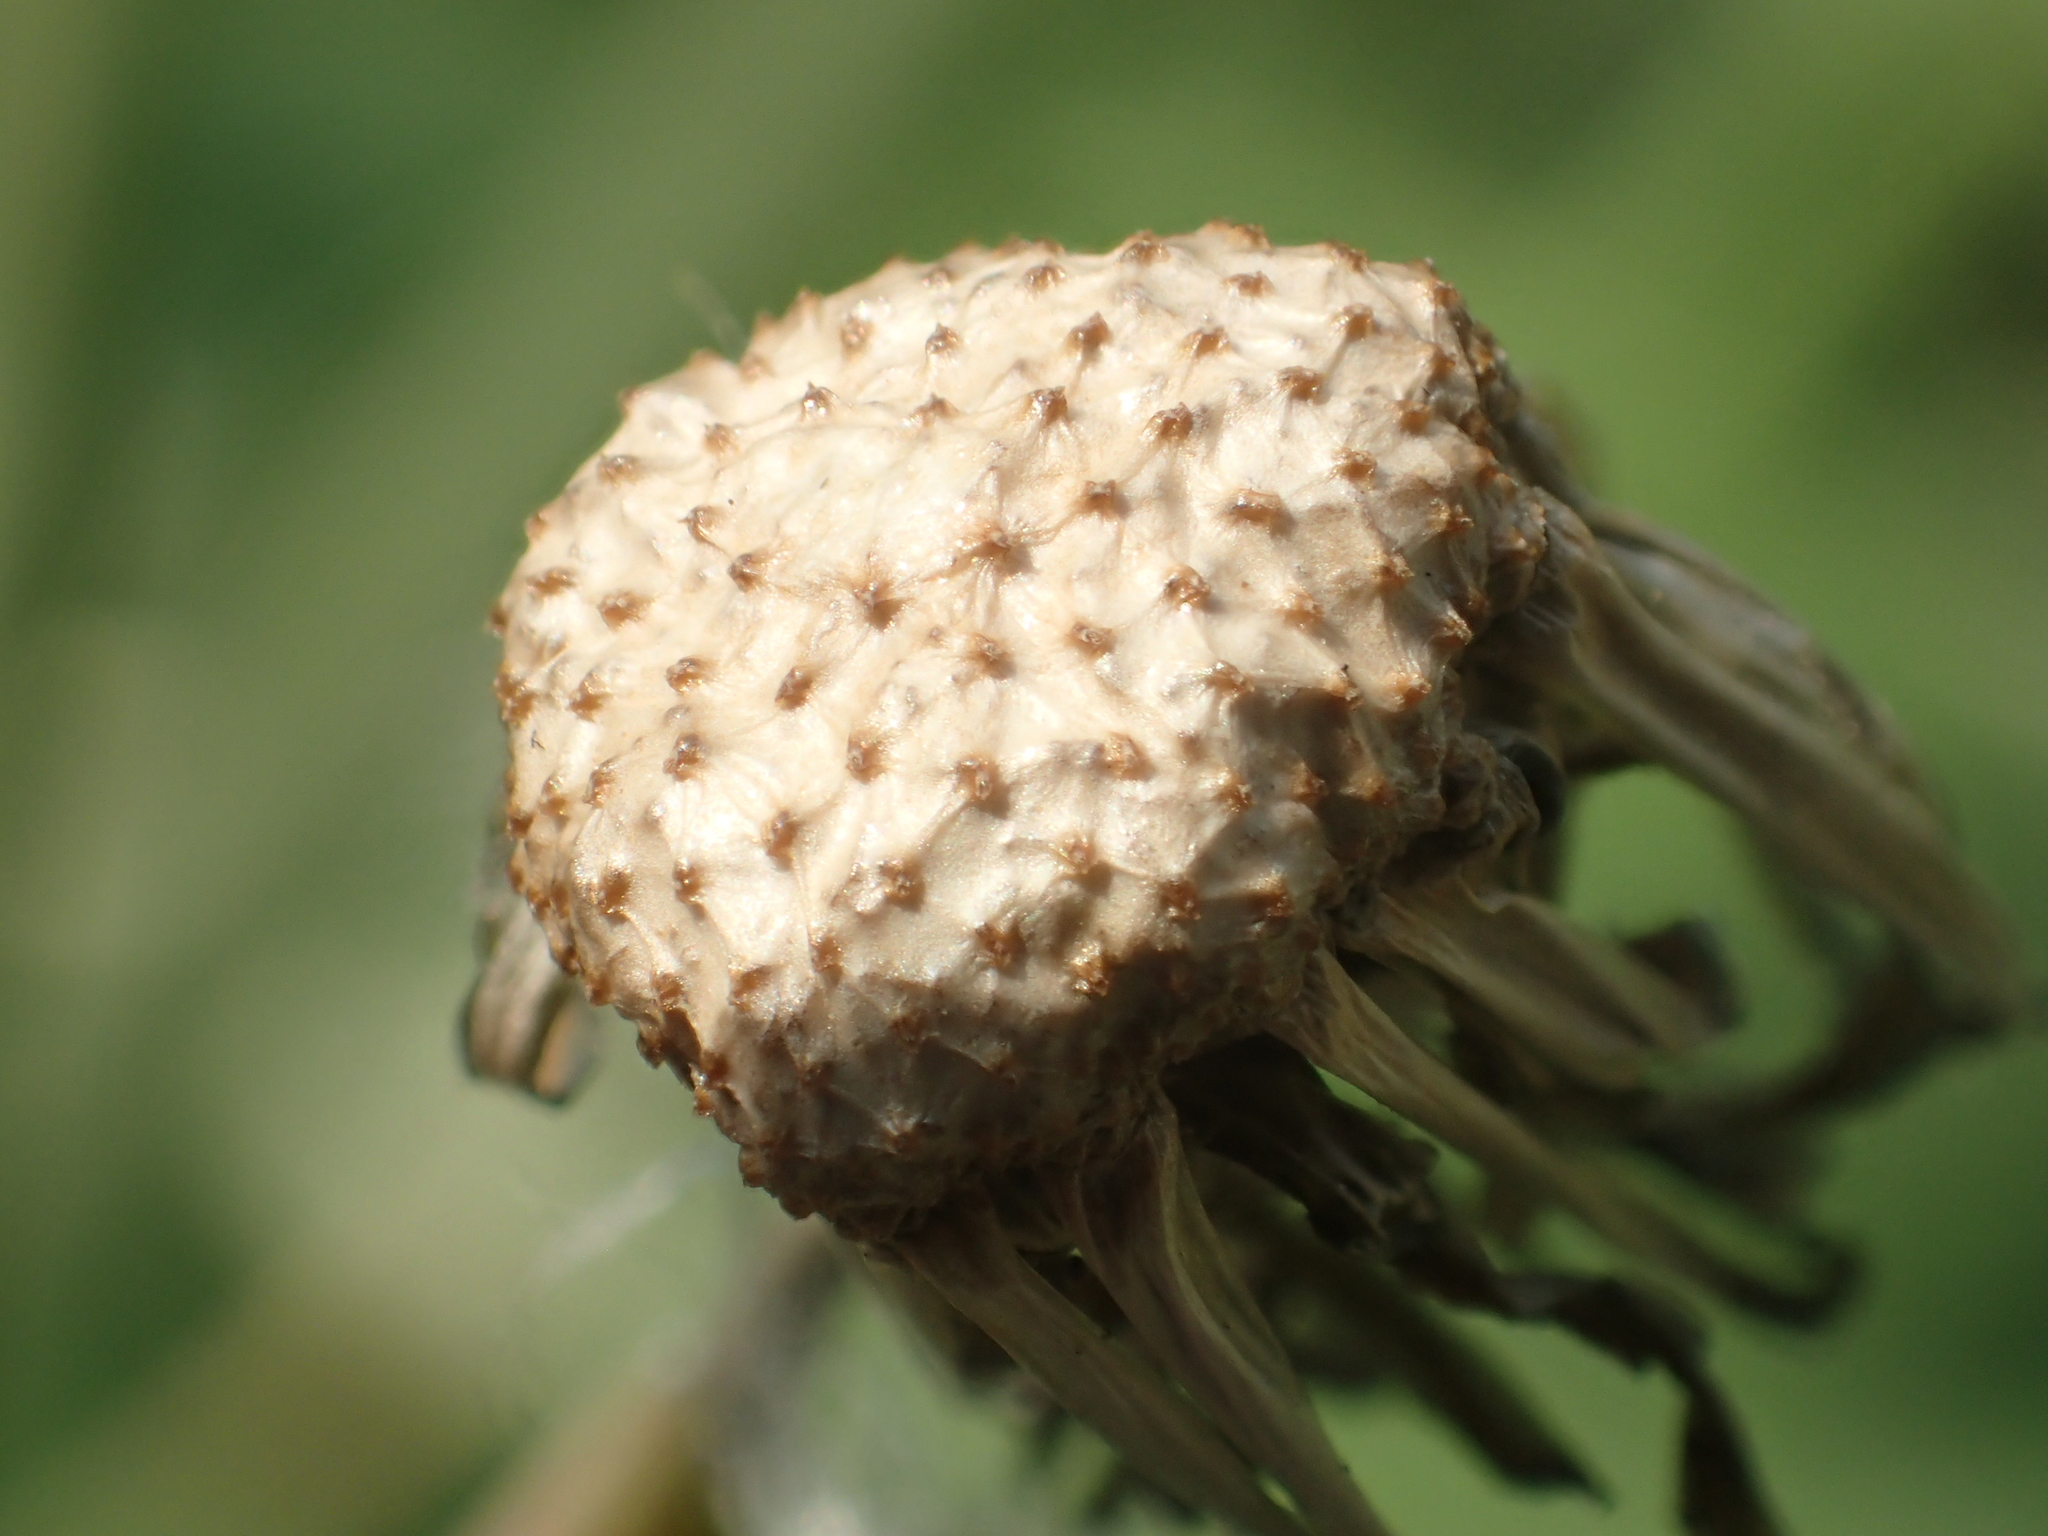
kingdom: Plantae
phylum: Tracheophyta
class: Magnoliopsida
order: Asterales
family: Asteraceae
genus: Sonchus
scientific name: Sonchus oleraceus
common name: Common sowthistle
